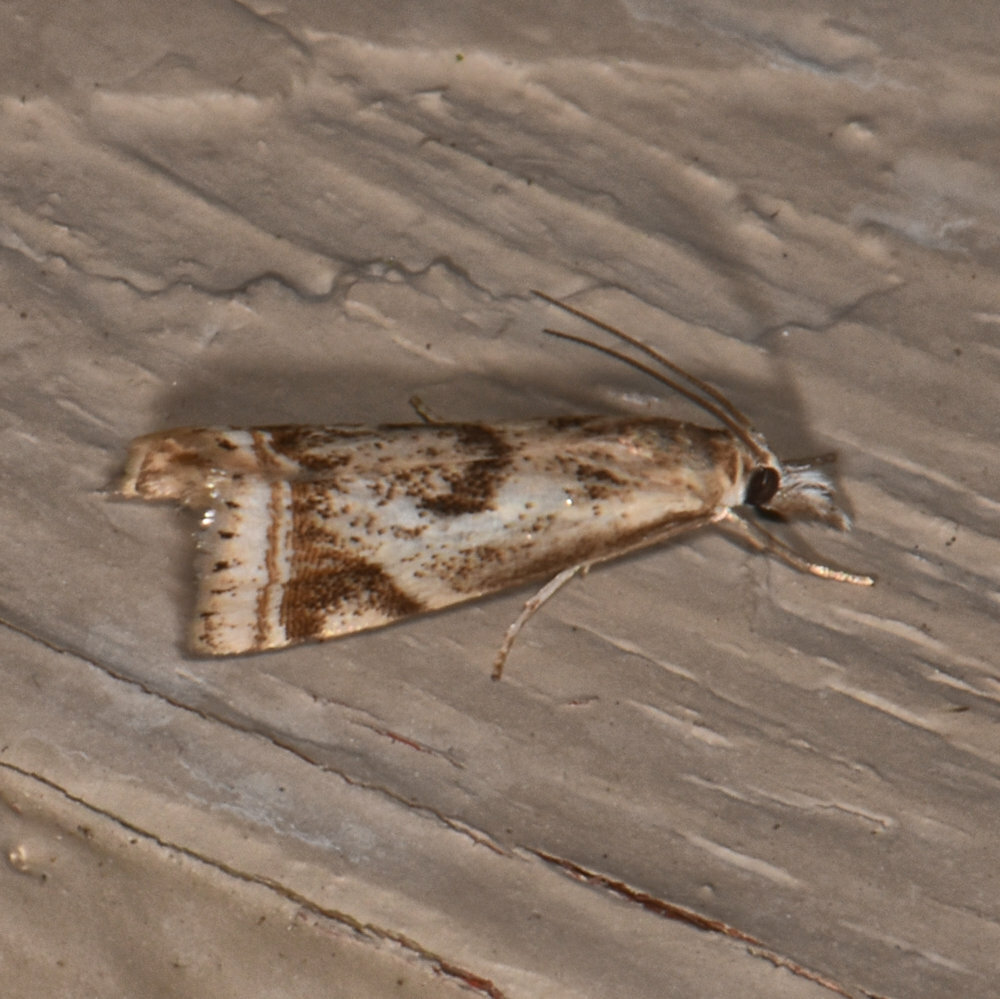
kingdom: Animalia
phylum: Arthropoda
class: Insecta
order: Lepidoptera
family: Crambidae
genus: Microcrambus
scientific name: Microcrambus elegans
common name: Elegant grass-veneer
